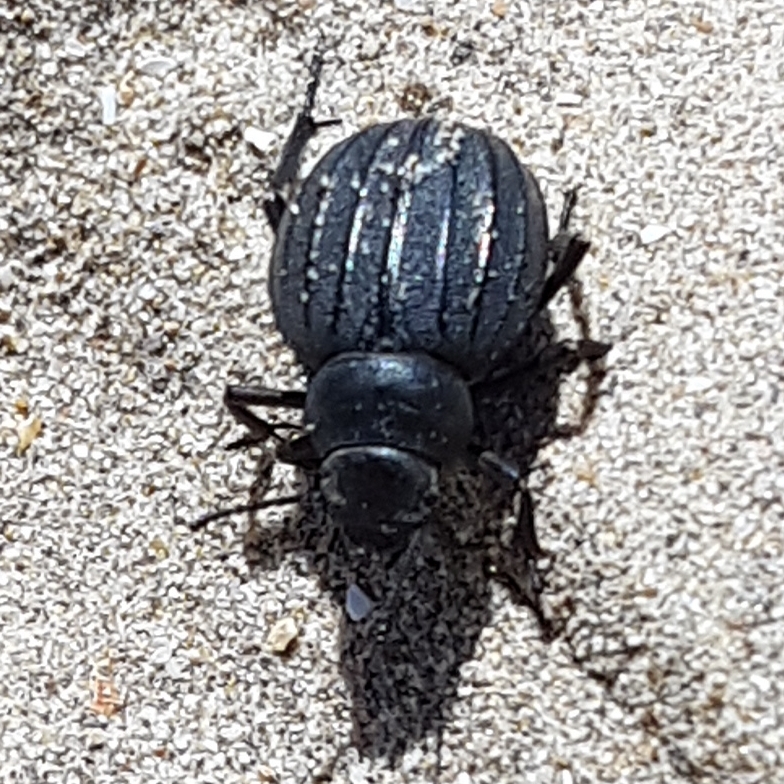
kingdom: Animalia
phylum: Arthropoda
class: Insecta
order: Coleoptera
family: Tenebrionidae
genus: Pimelia
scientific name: Pimelia muricata
